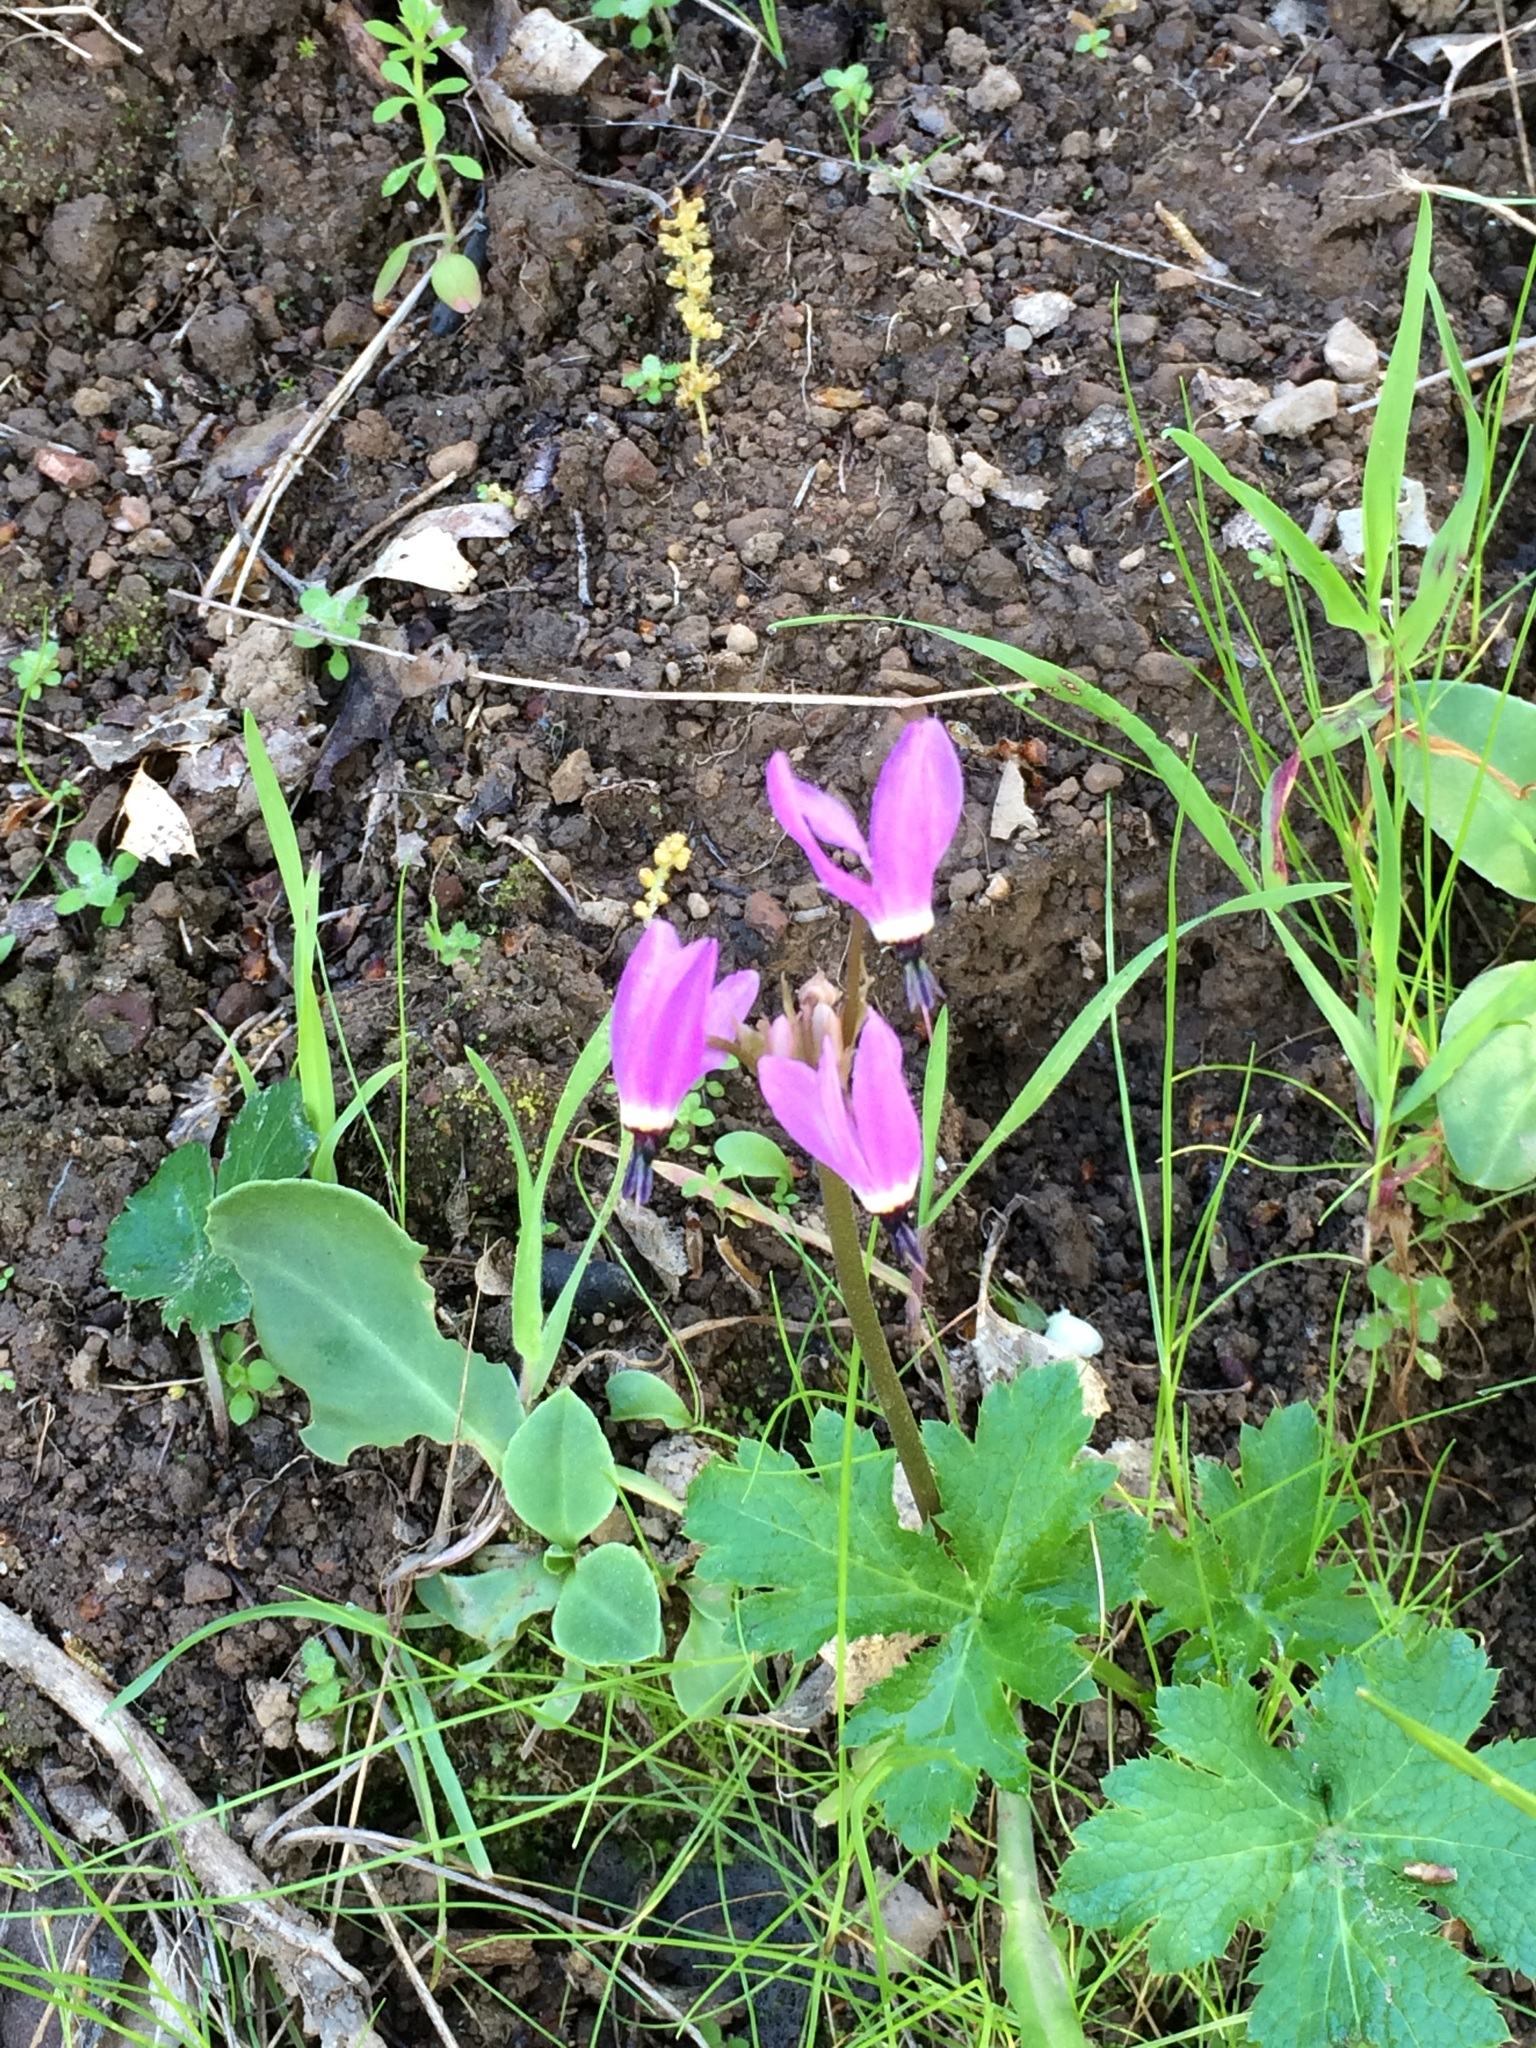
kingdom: Plantae
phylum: Tracheophyta
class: Magnoliopsida
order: Ericales
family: Primulaceae
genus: Dodecatheon
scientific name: Dodecatheon hendersonii
